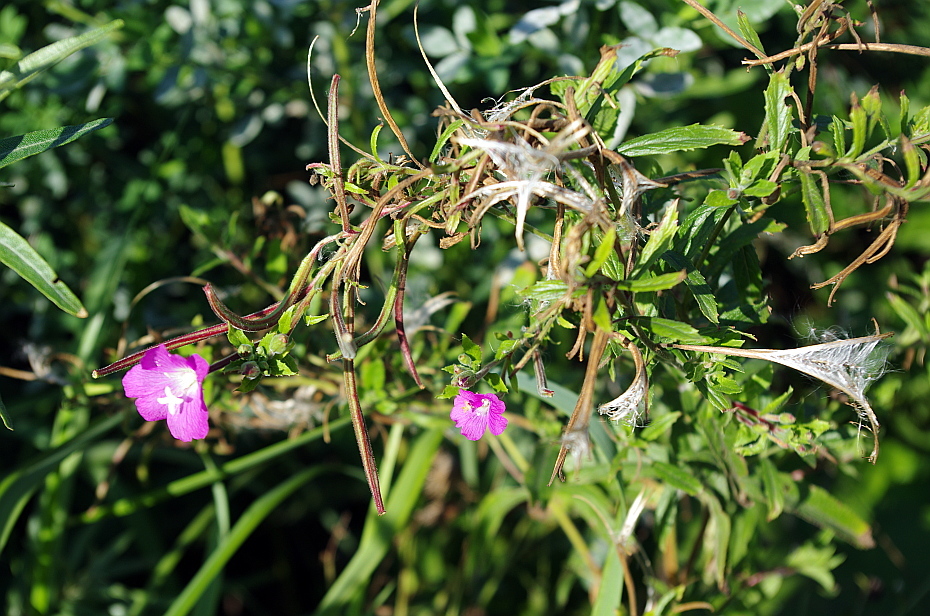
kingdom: Plantae
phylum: Tracheophyta
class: Magnoliopsida
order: Myrtales
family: Onagraceae
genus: Epilobium
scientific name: Epilobium hirsutum
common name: Great willowherb
